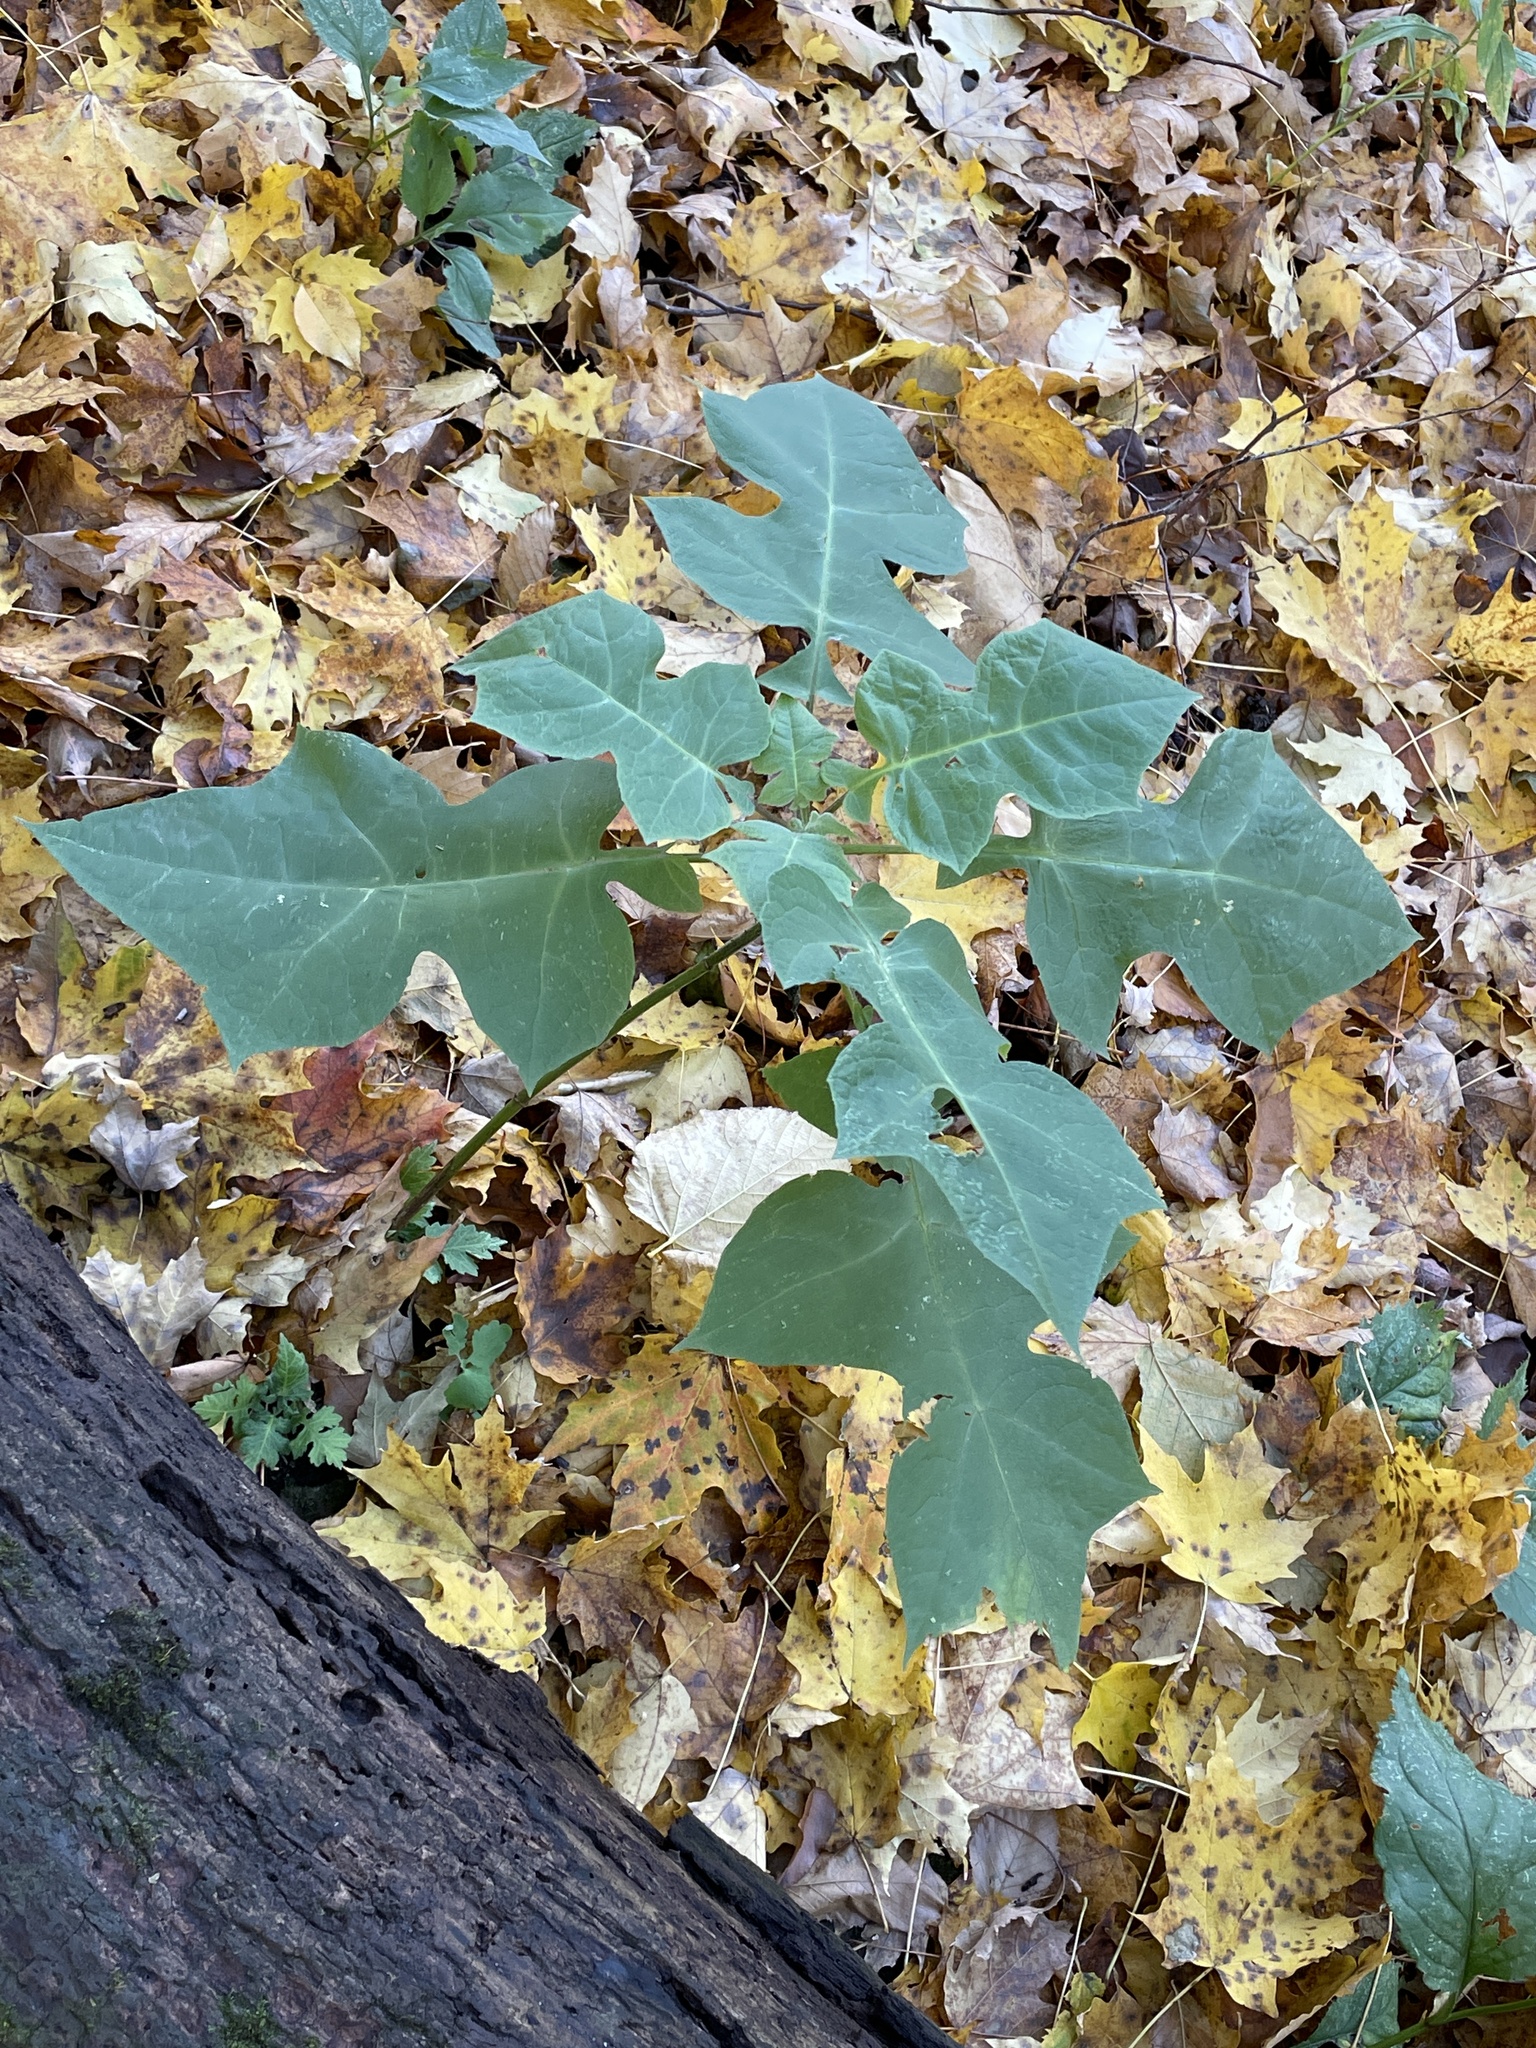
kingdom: Plantae
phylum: Tracheophyta
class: Magnoliopsida
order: Asterales
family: Asteraceae
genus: Polymnia
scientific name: Polymnia canadensis
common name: Pale-flowered leafcup
